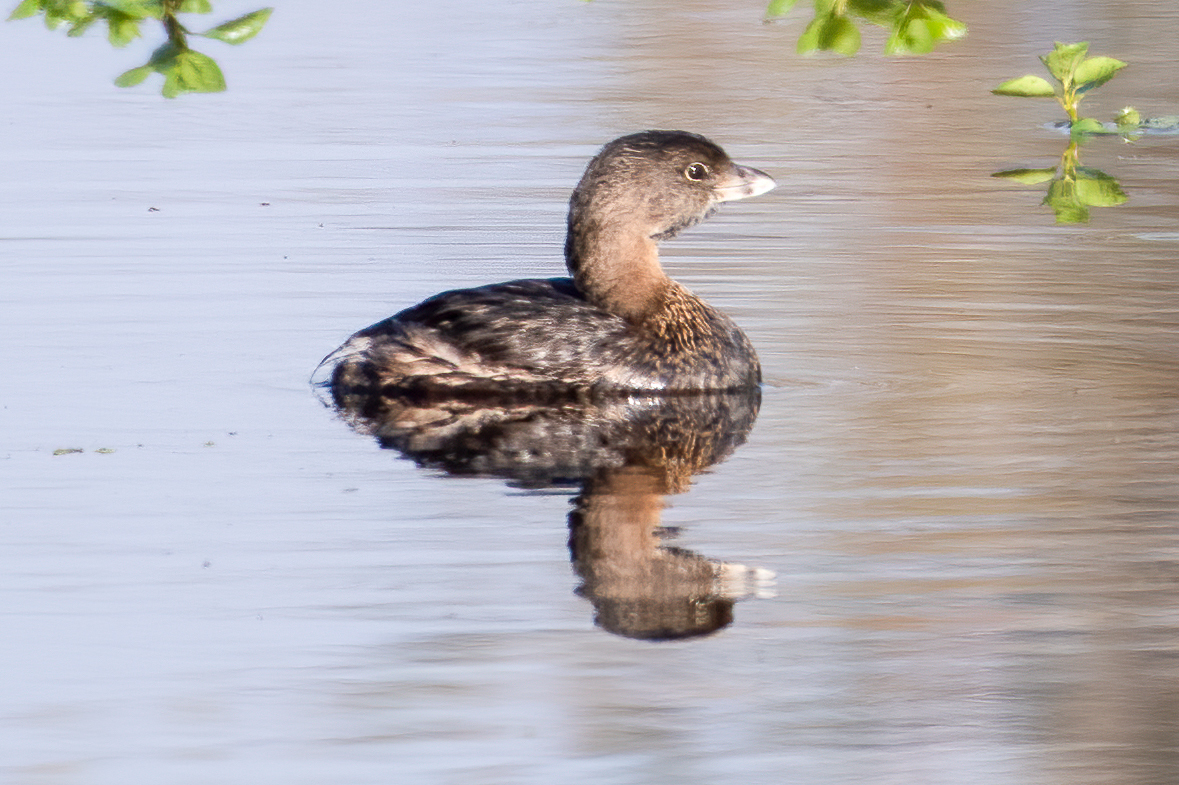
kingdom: Animalia
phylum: Chordata
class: Aves
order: Podicipediformes
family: Podicipedidae
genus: Podilymbus
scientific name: Podilymbus podiceps
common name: Pied-billed grebe
